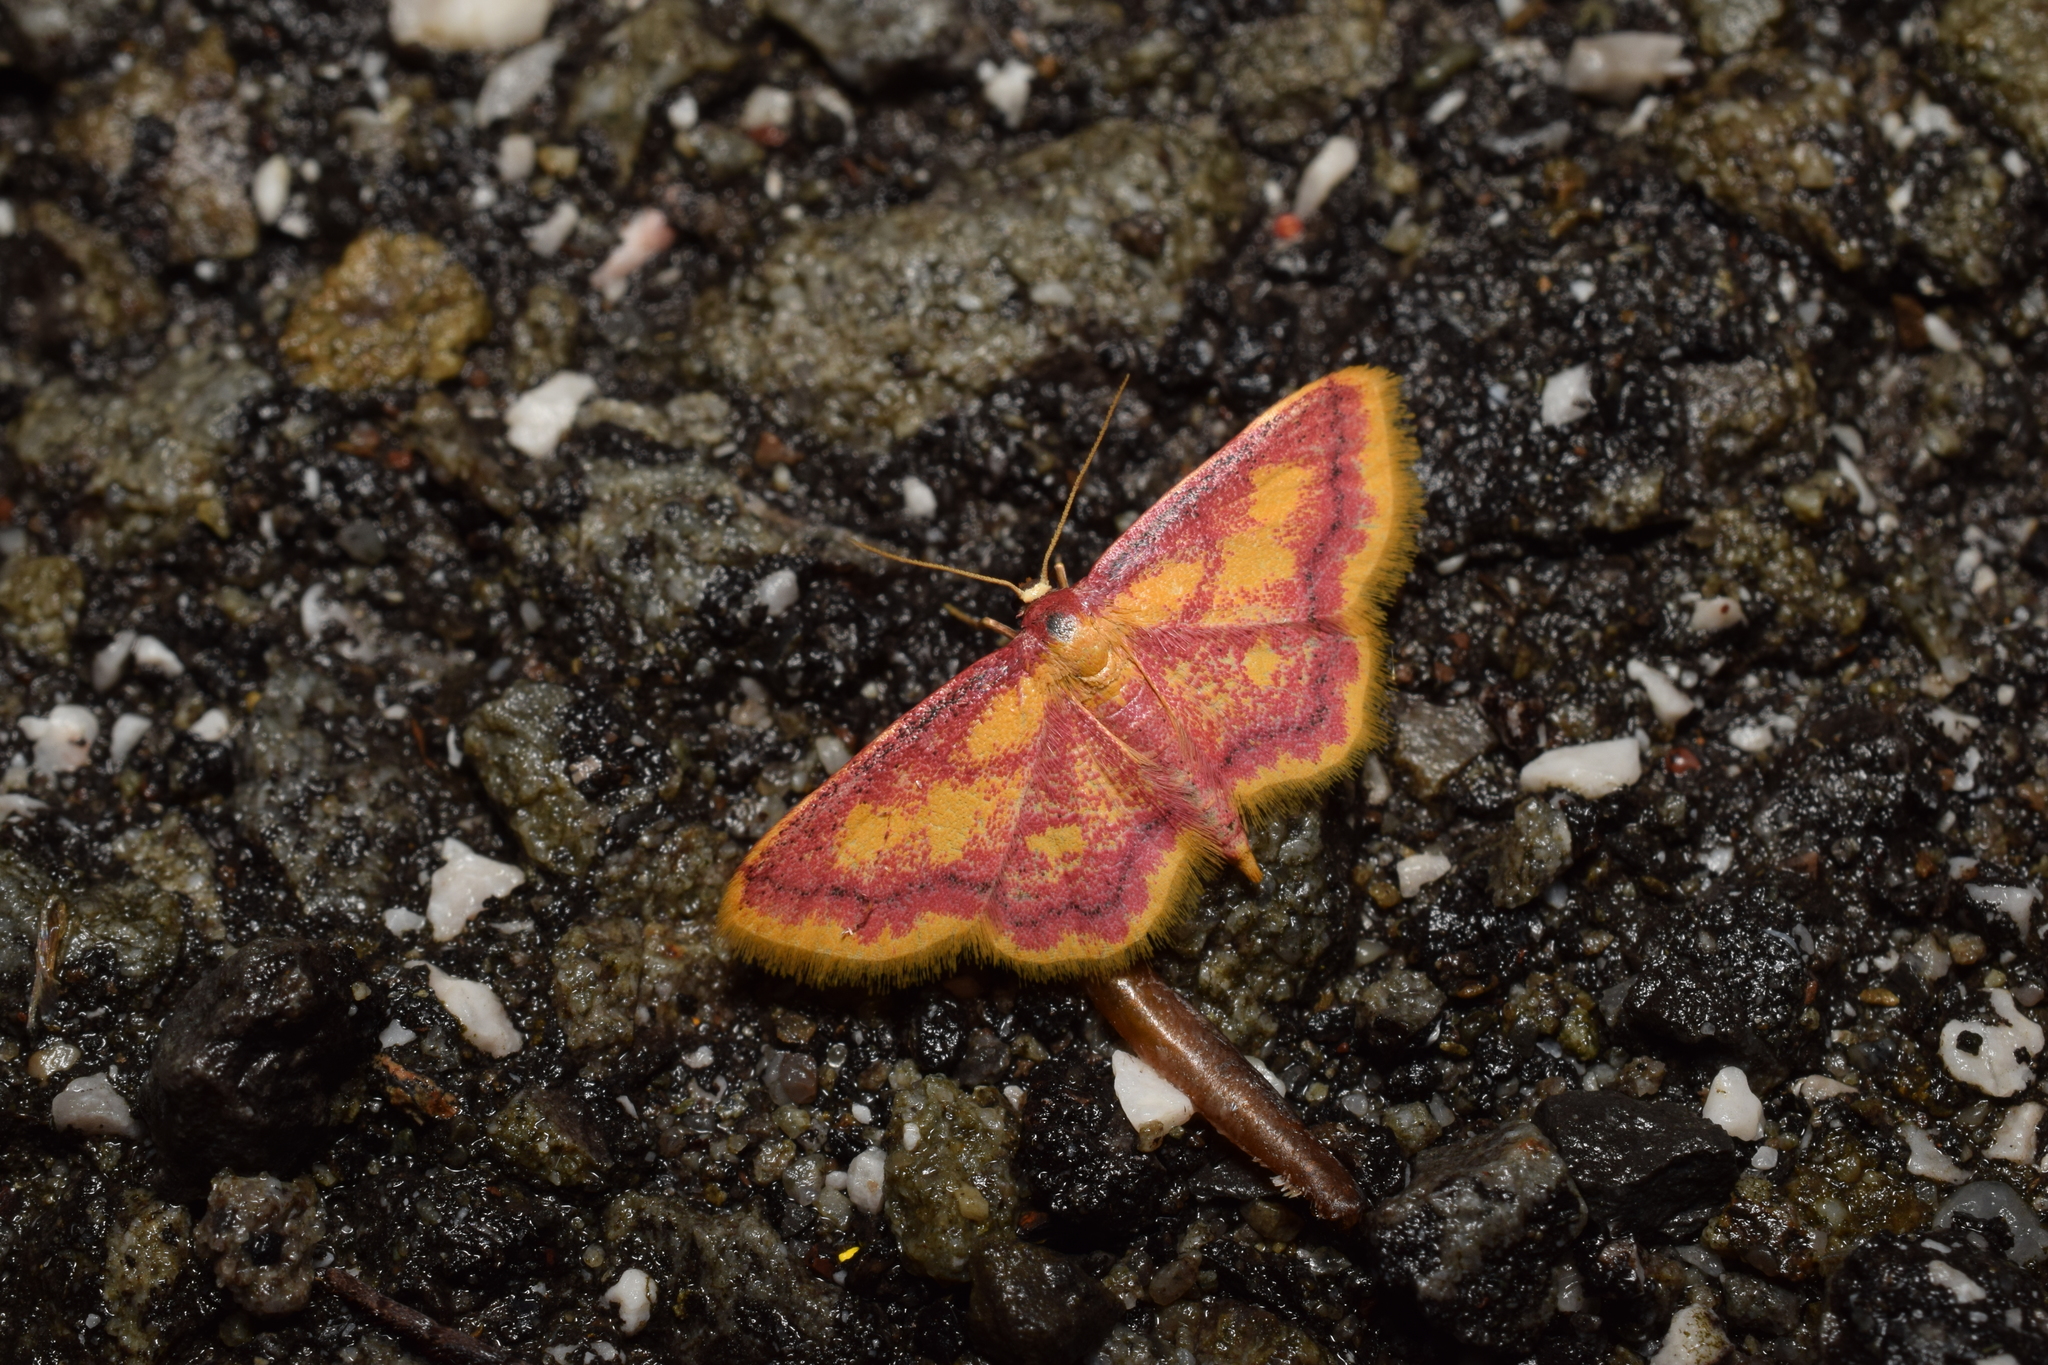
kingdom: Animalia
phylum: Arthropoda
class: Insecta
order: Lepidoptera
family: Geometridae
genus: Idaea
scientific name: Idaea muricata
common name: Purple-bordered gold
